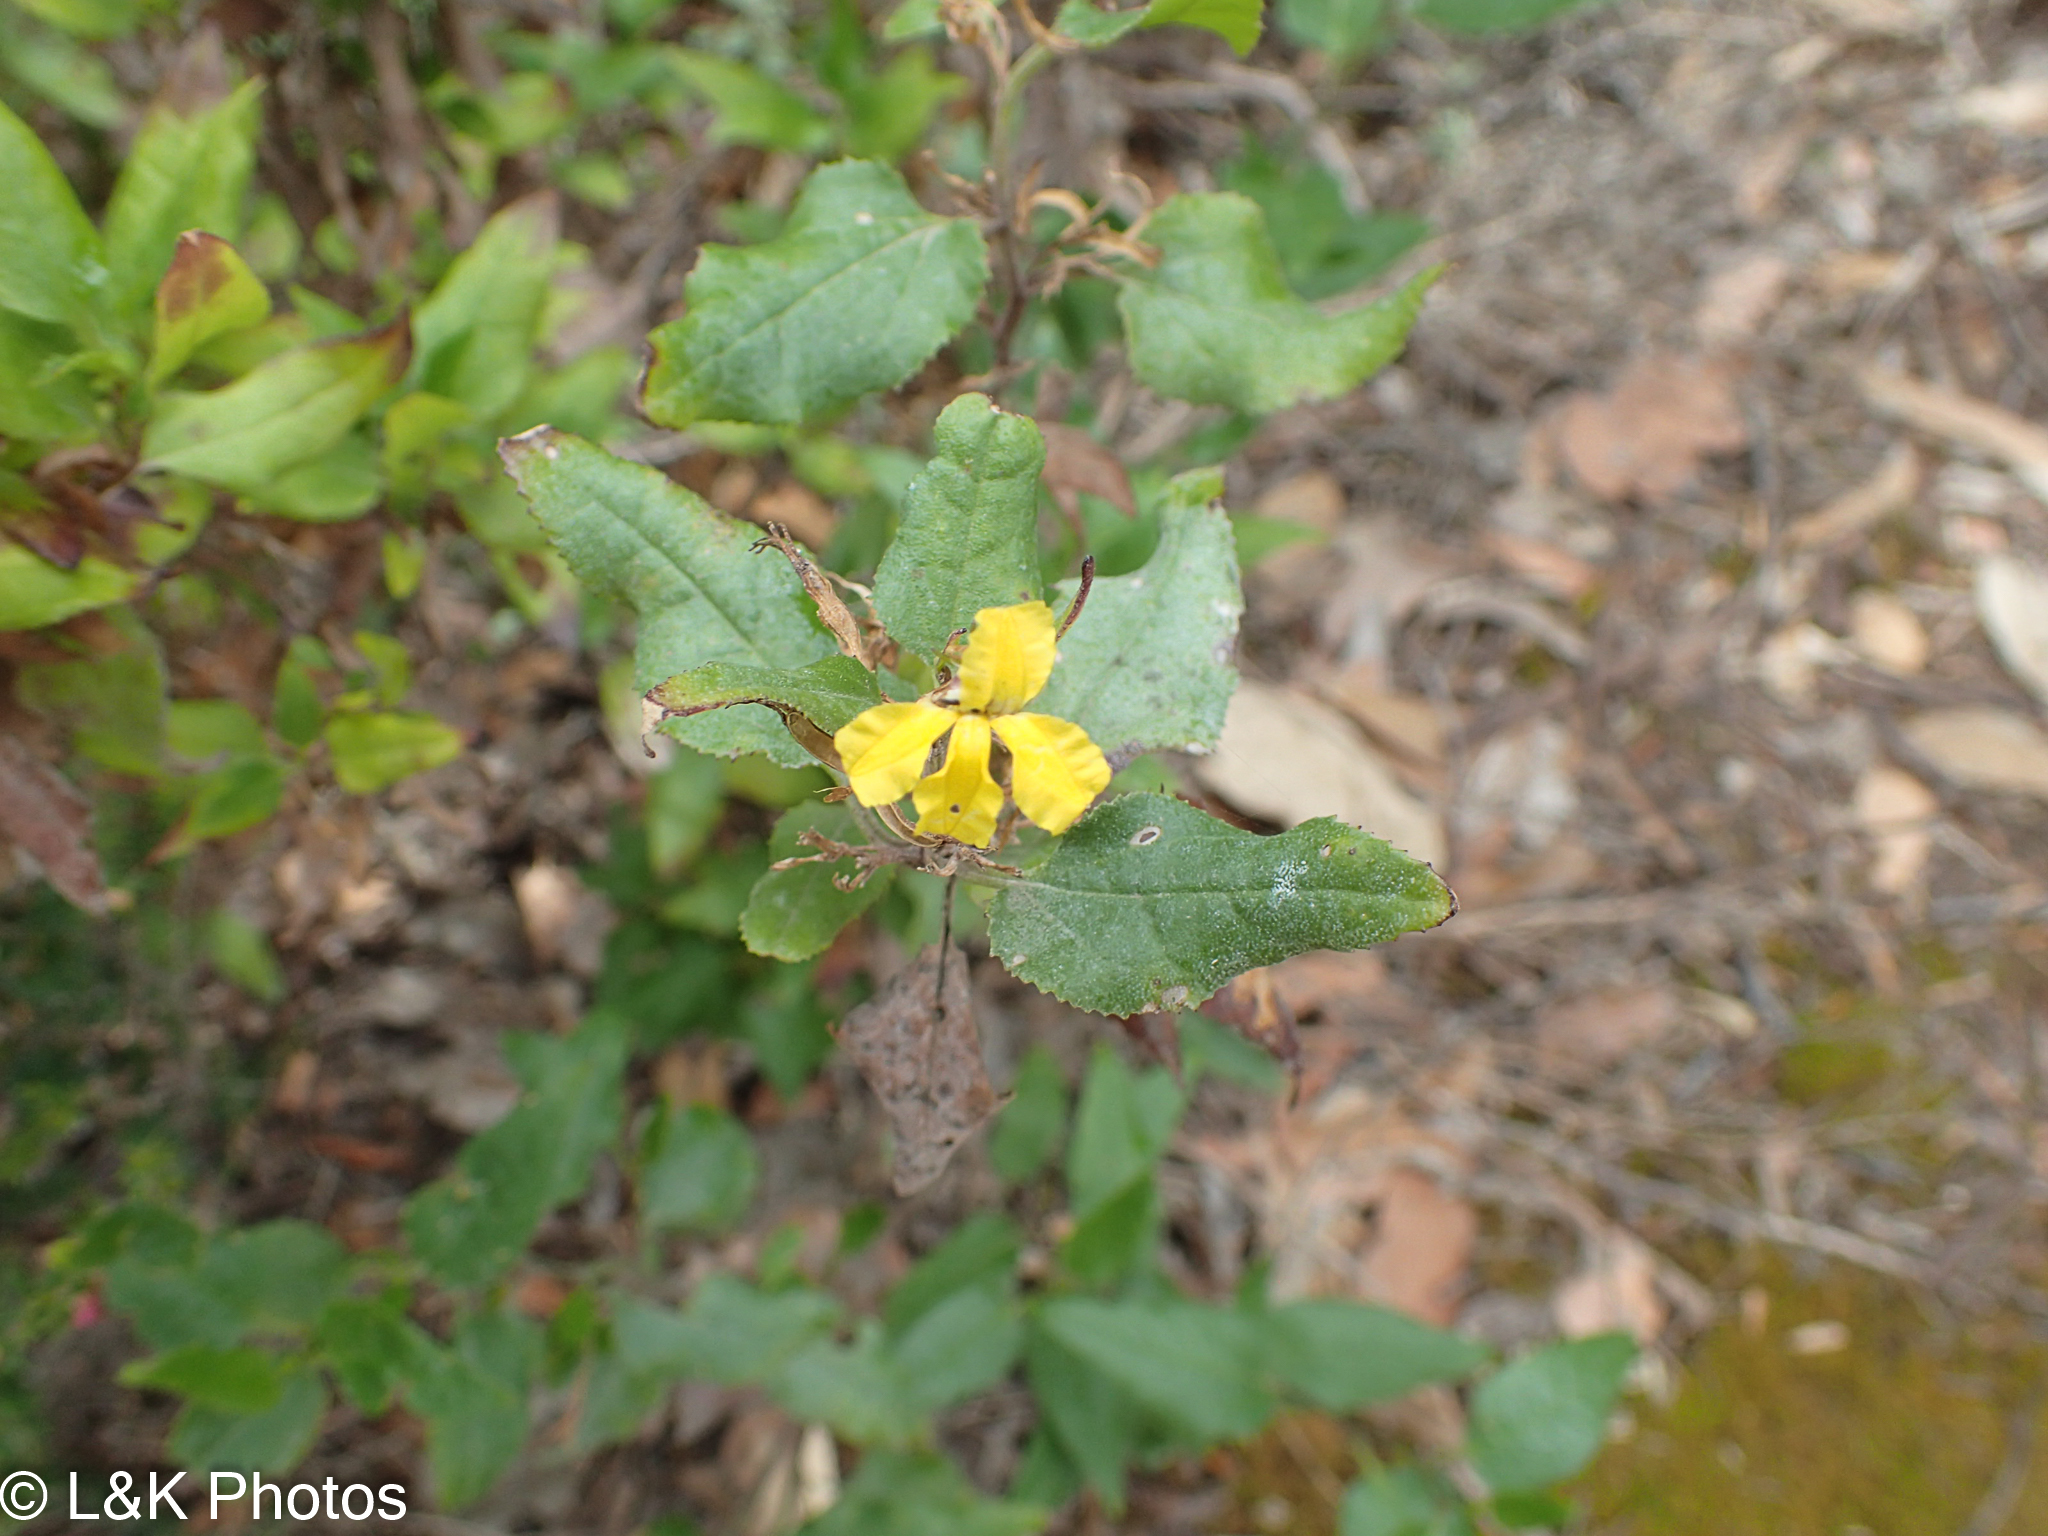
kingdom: Plantae
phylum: Tracheophyta
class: Magnoliopsida
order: Asterales
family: Goodeniaceae
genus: Goodenia
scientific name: Goodenia ovata
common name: Hop goodenia
